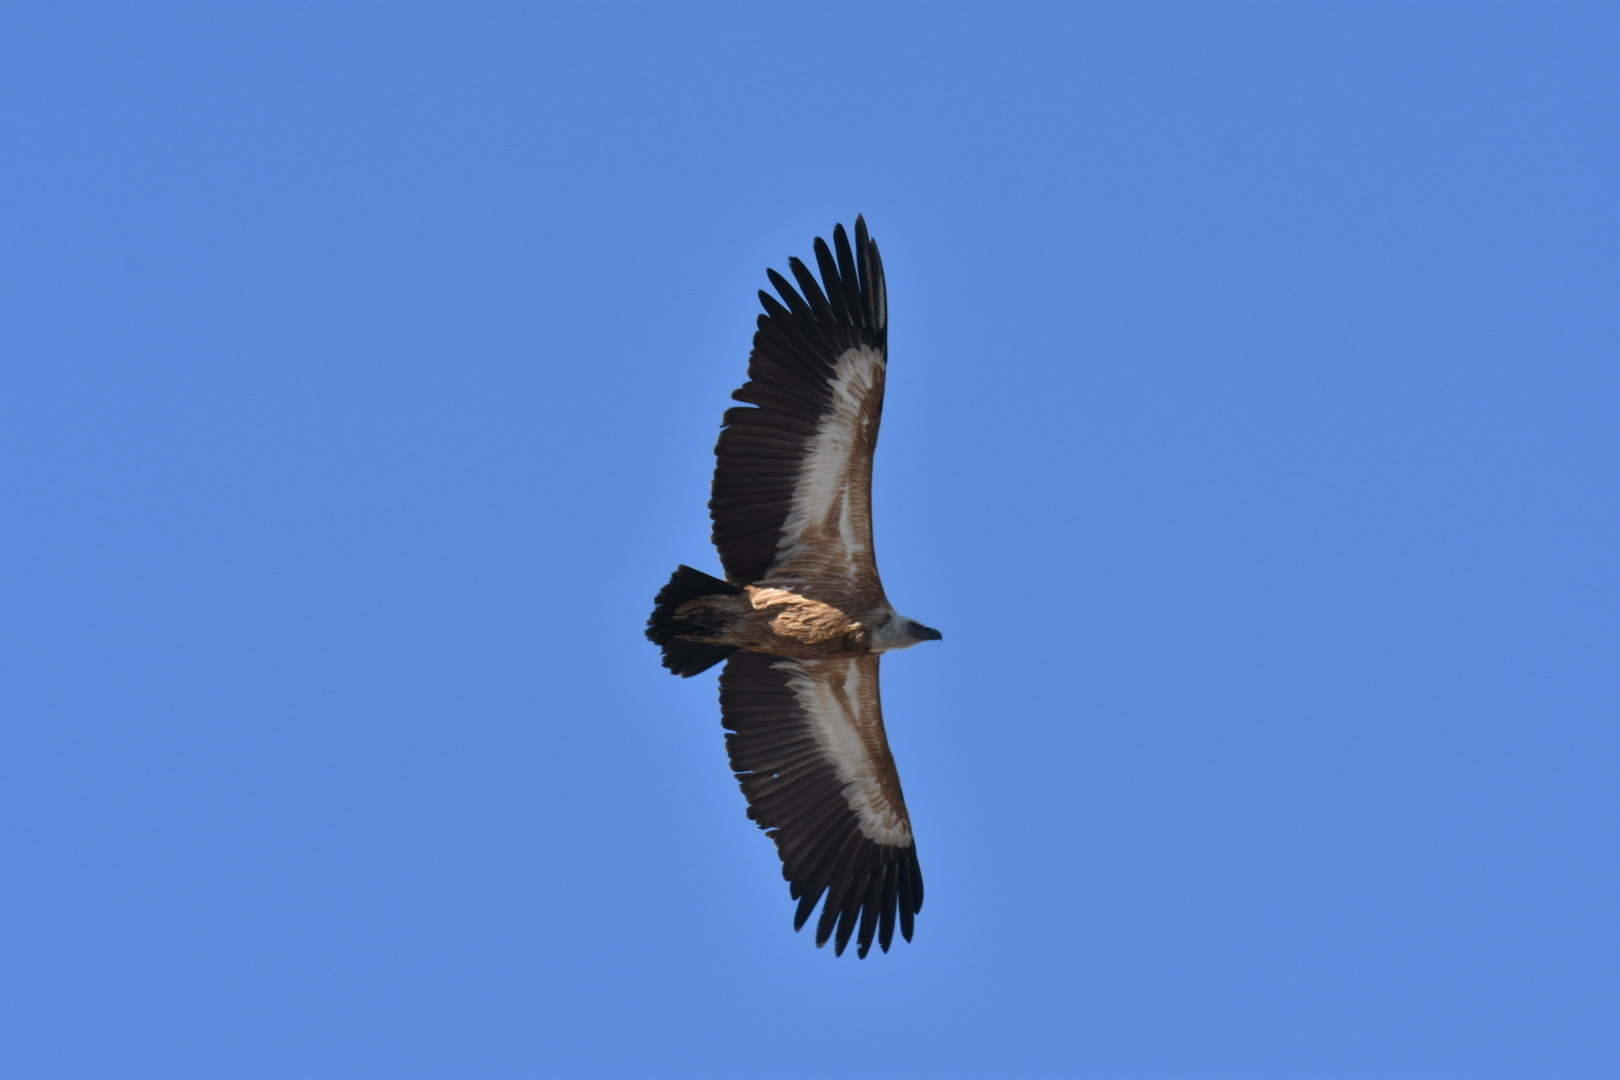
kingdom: Animalia
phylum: Chordata
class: Aves
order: Accipitriformes
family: Accipitridae
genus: Gyps
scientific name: Gyps fulvus
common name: Griffon vulture
